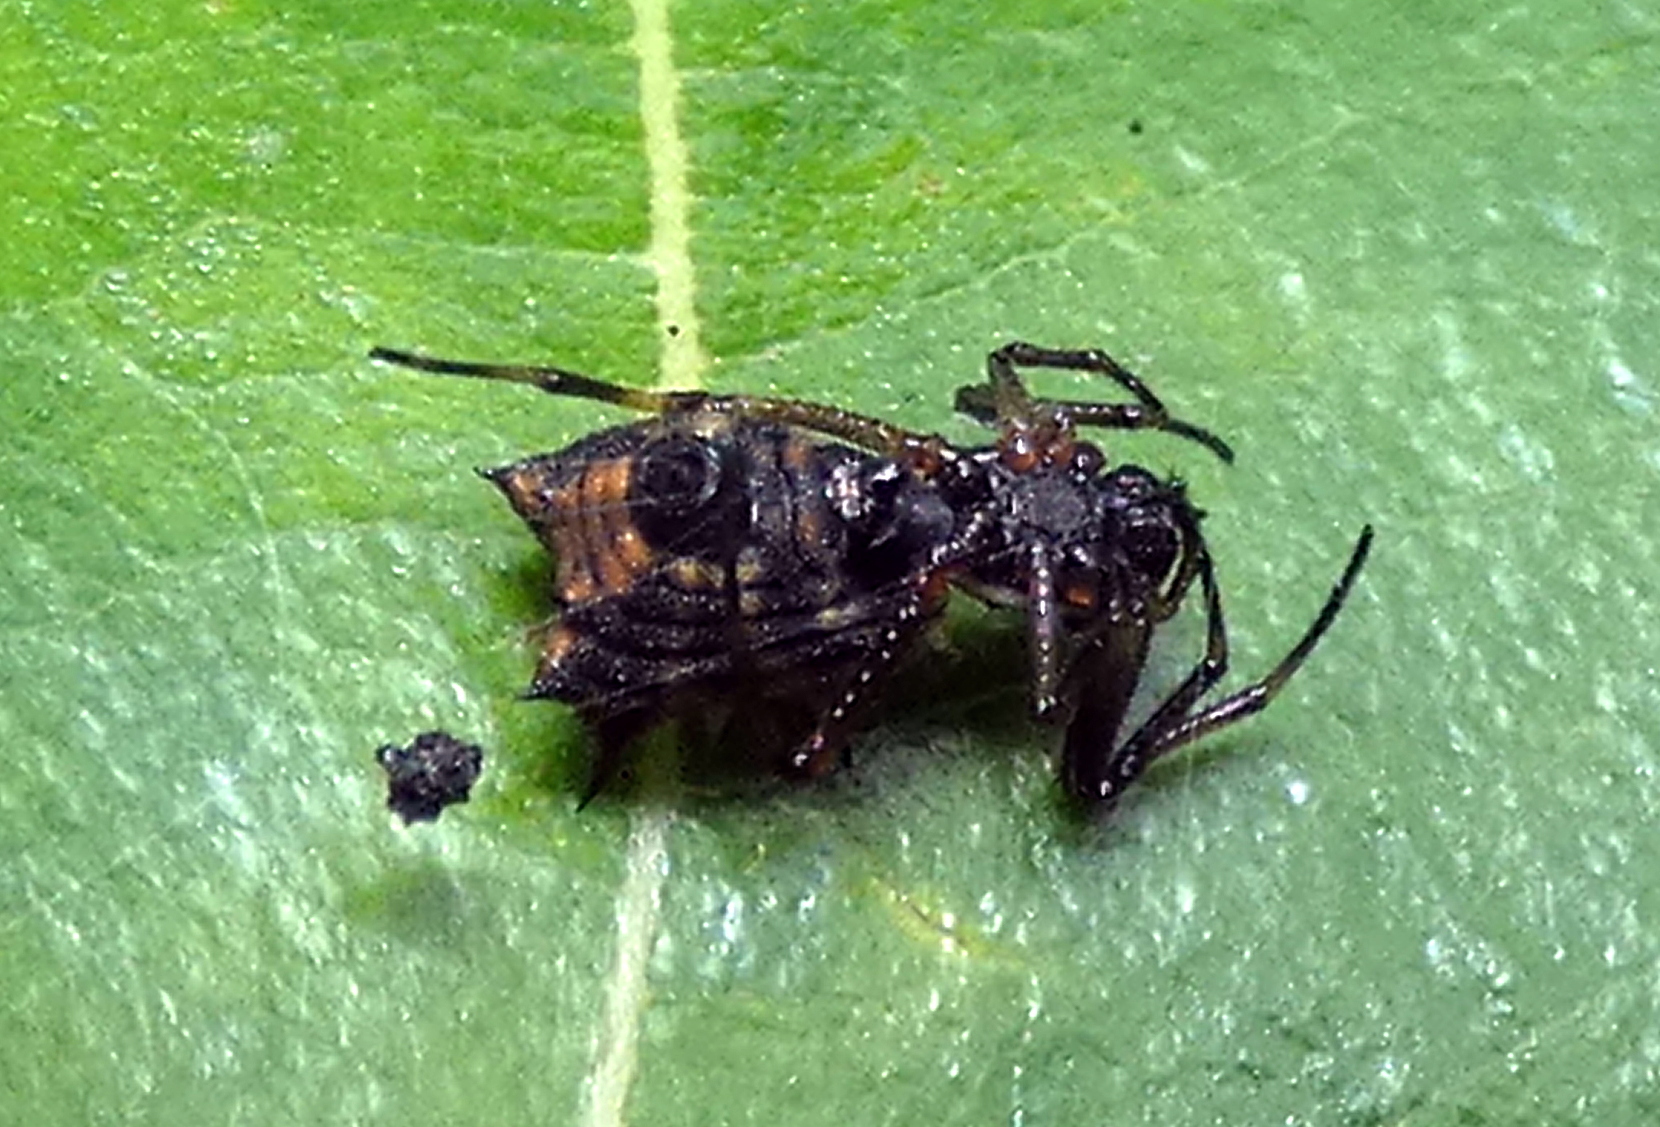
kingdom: Animalia
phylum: Arthropoda
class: Arachnida
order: Araneae
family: Araneidae
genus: Micrathena
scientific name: Micrathena picta
